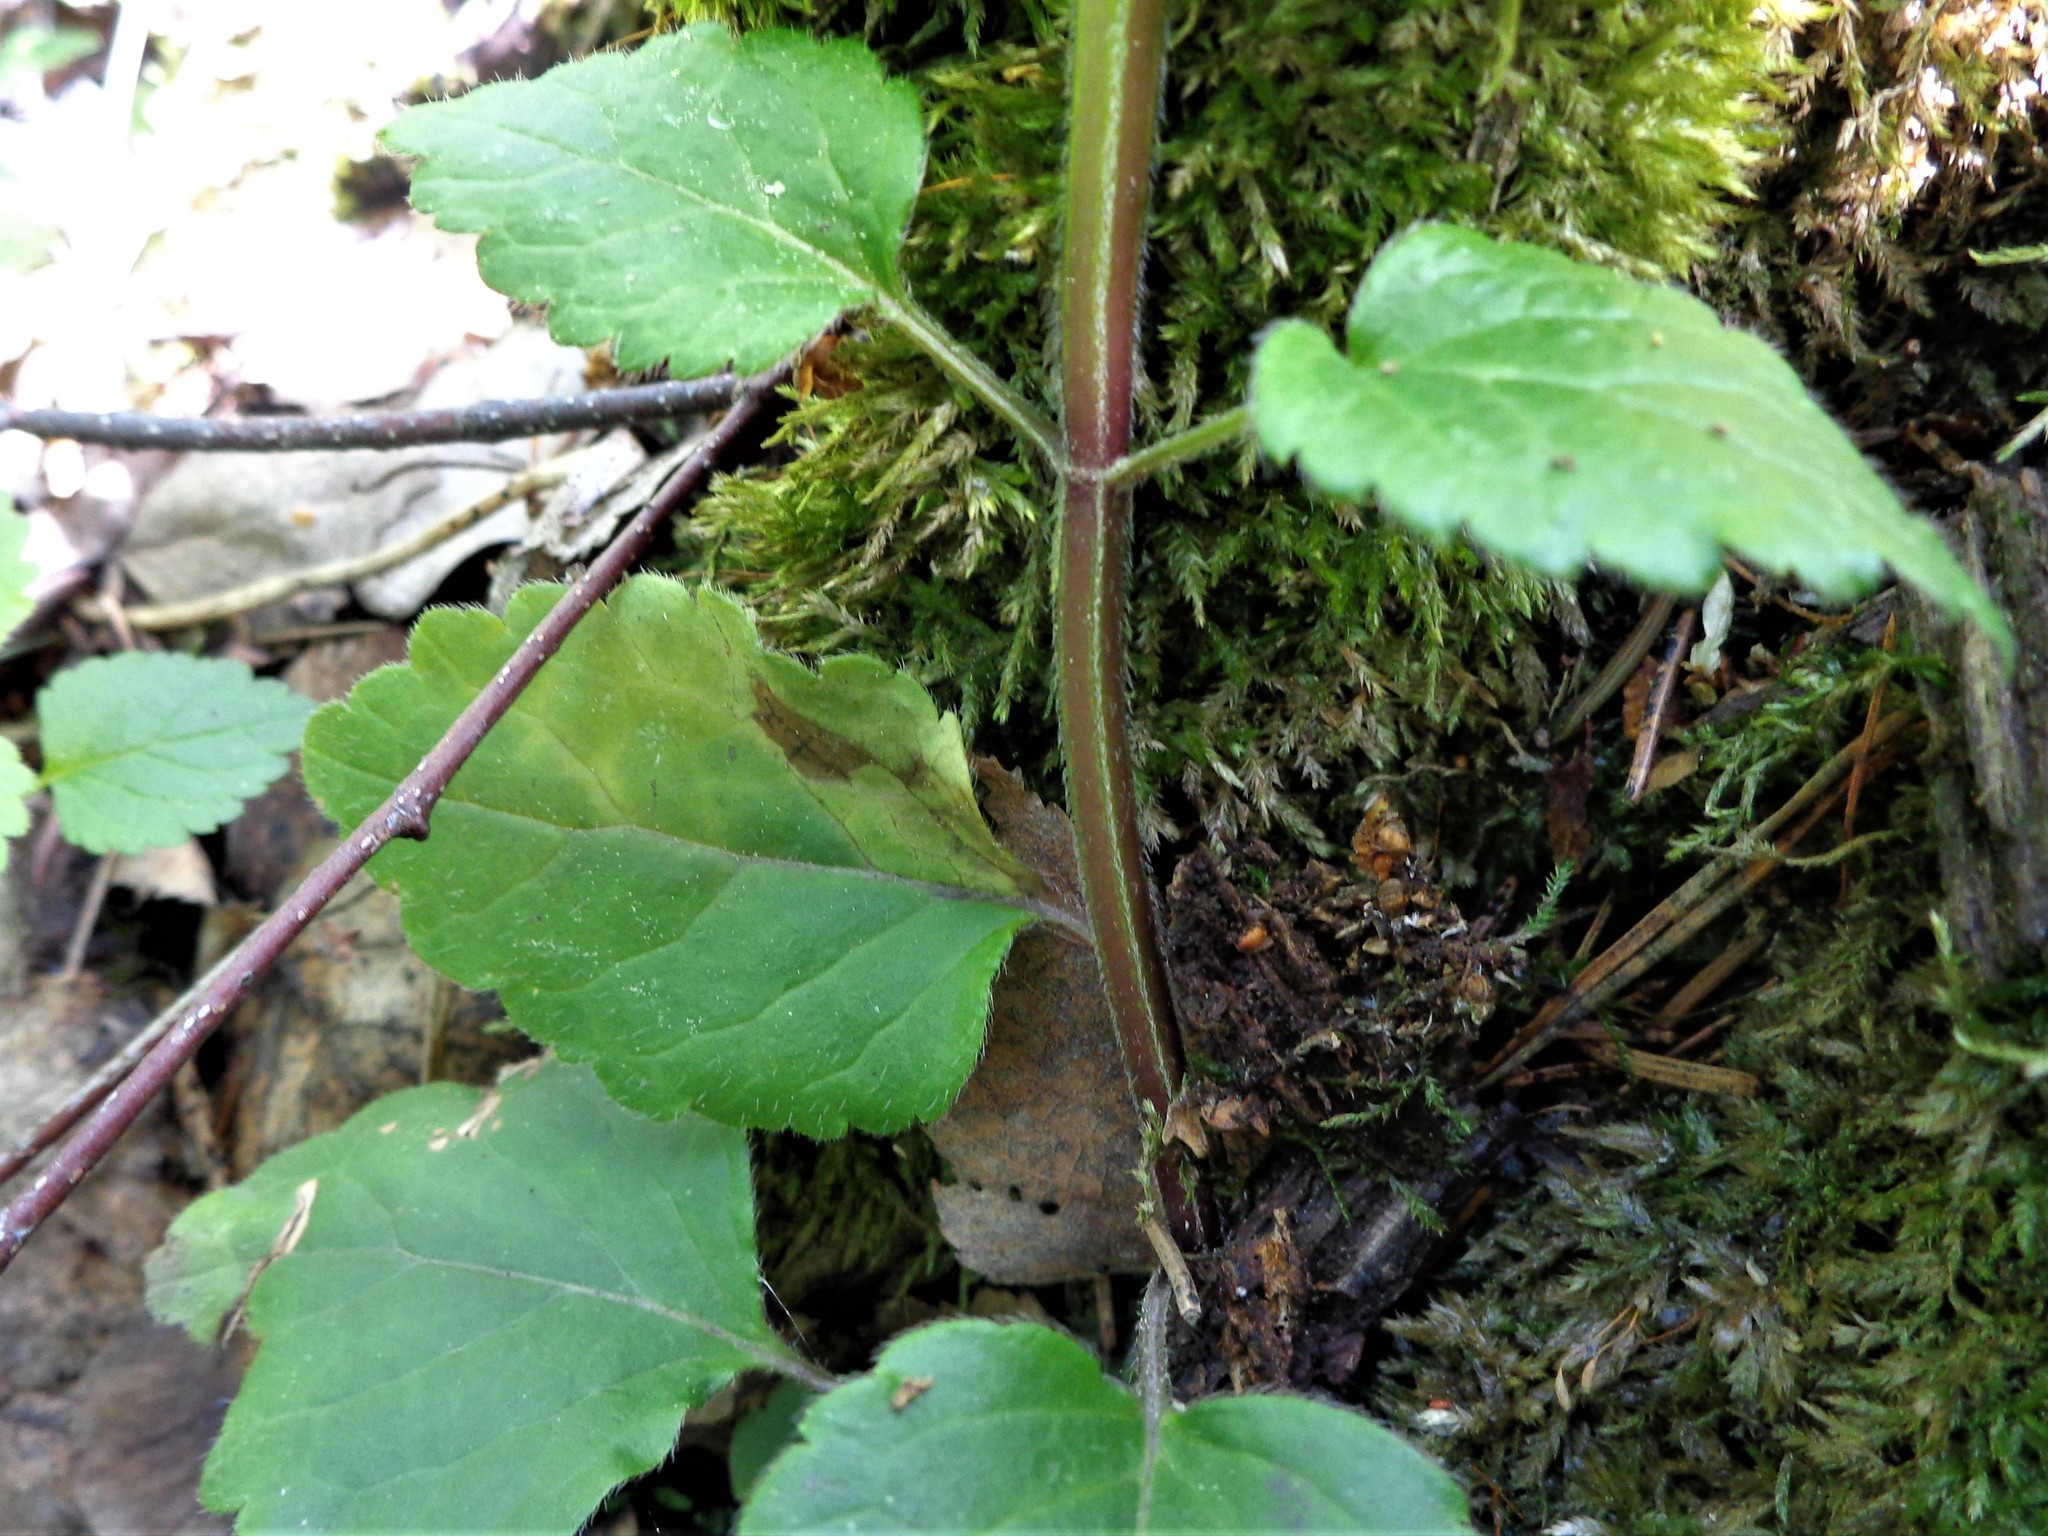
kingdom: Plantae
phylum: Tracheophyta
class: Magnoliopsida
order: Lamiales
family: Lamiaceae
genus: Lamium
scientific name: Lamium galeobdolon
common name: Yellow archangel
